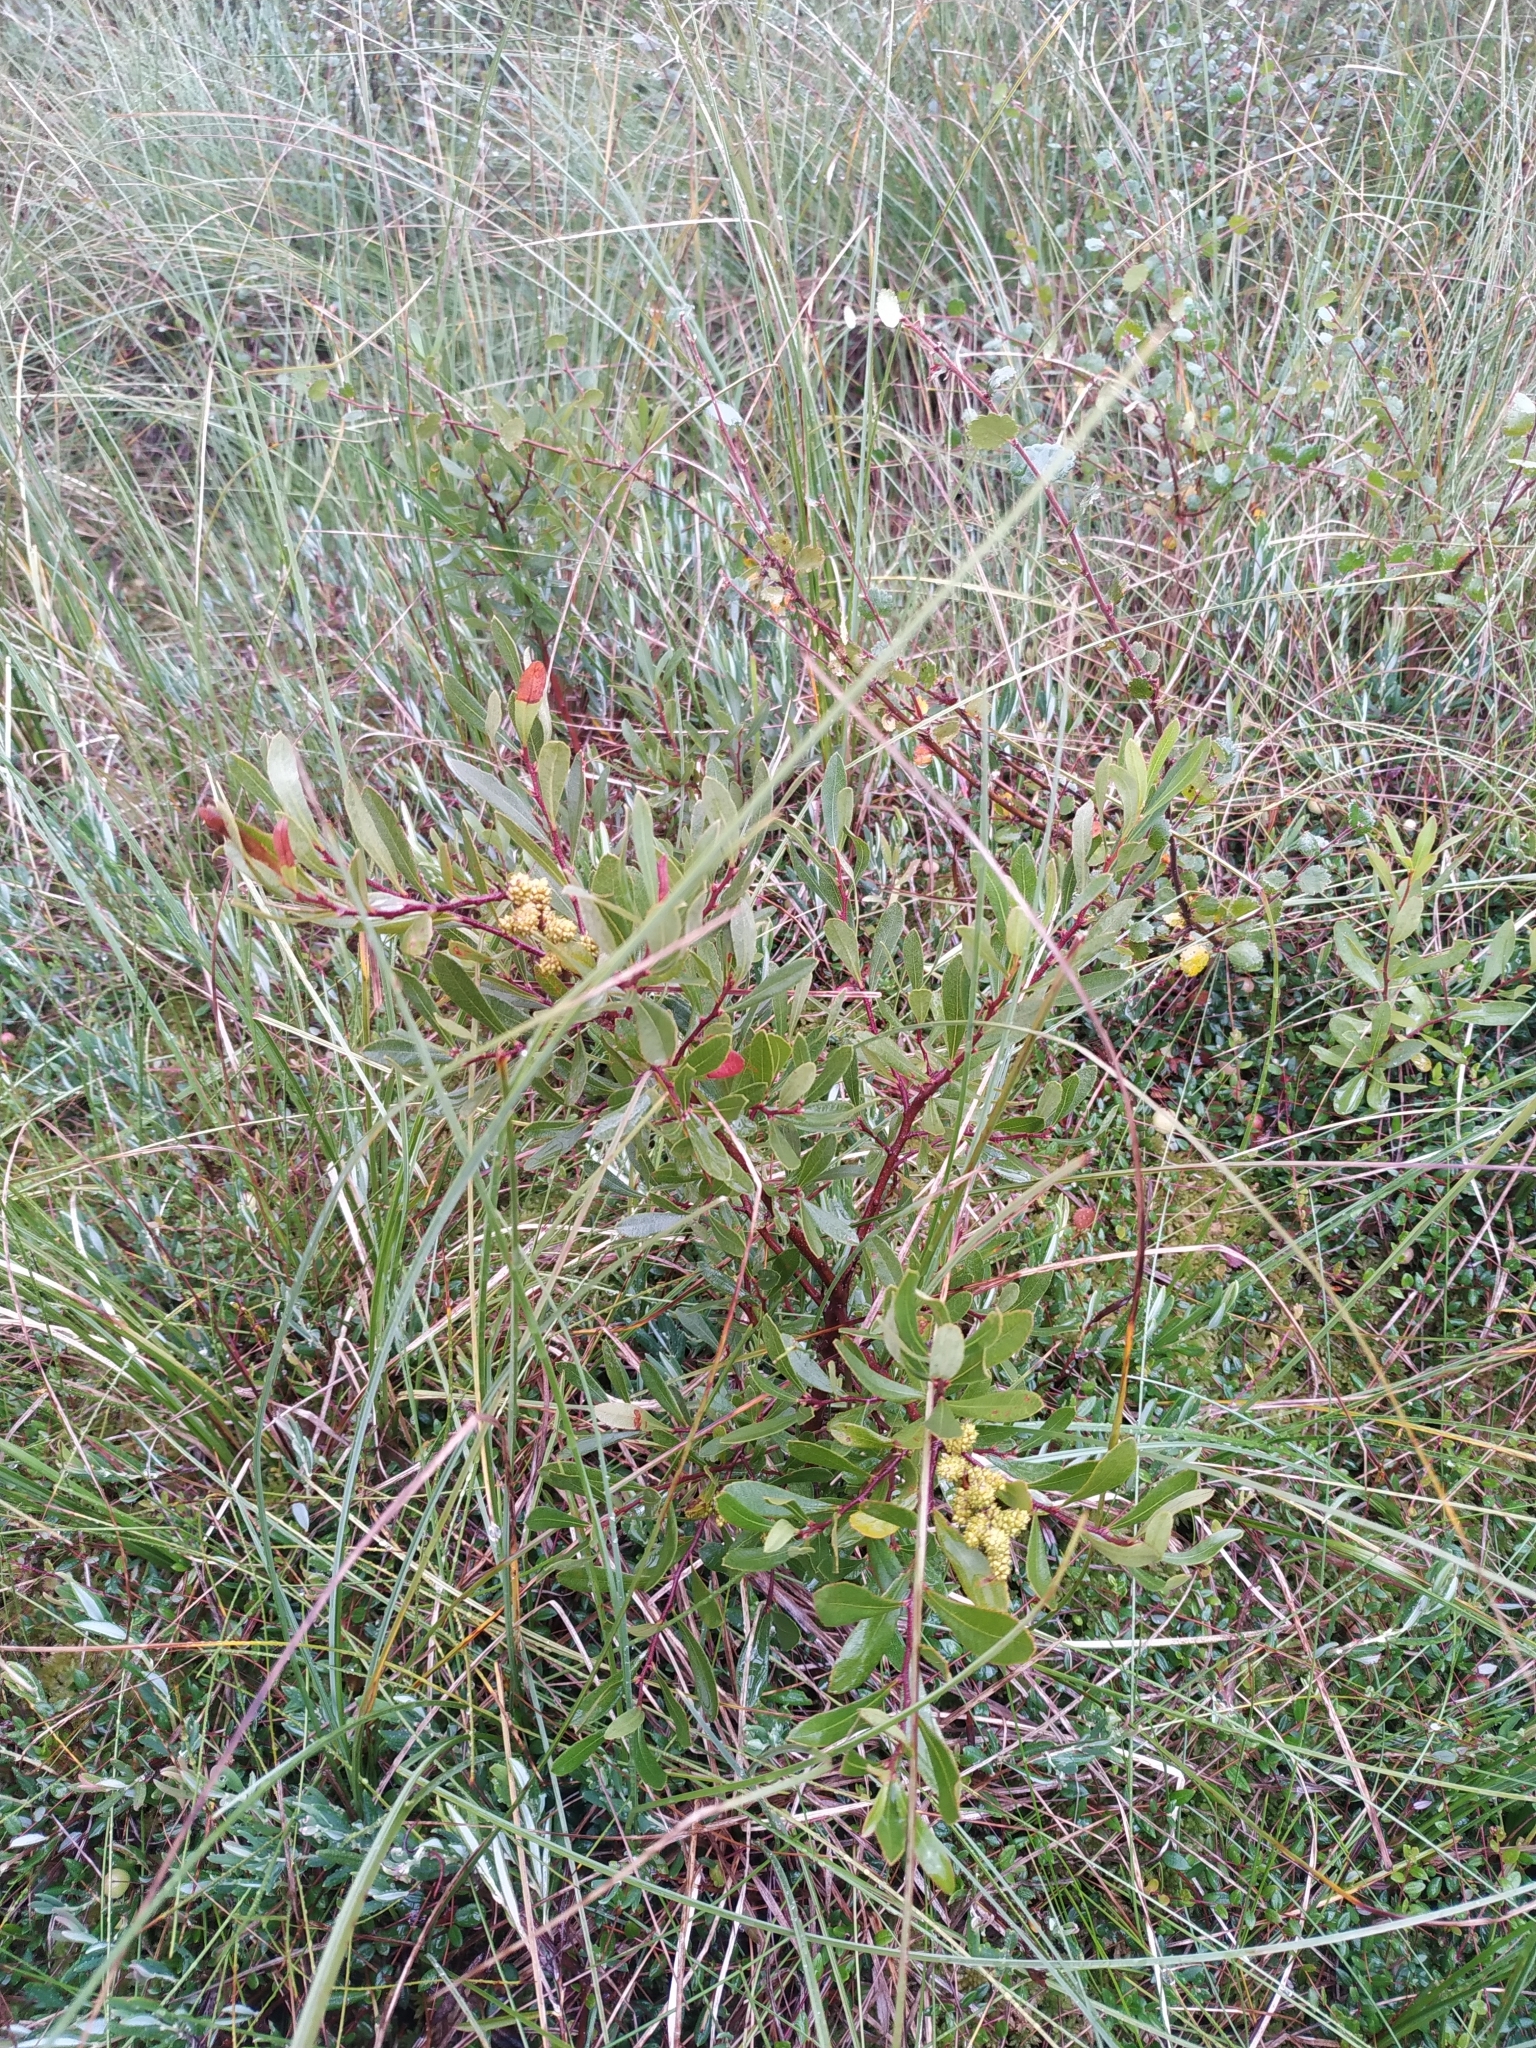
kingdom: Plantae
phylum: Tracheophyta
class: Magnoliopsida
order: Fagales
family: Myricaceae
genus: Myrica
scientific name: Myrica gale
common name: Sweet gale
